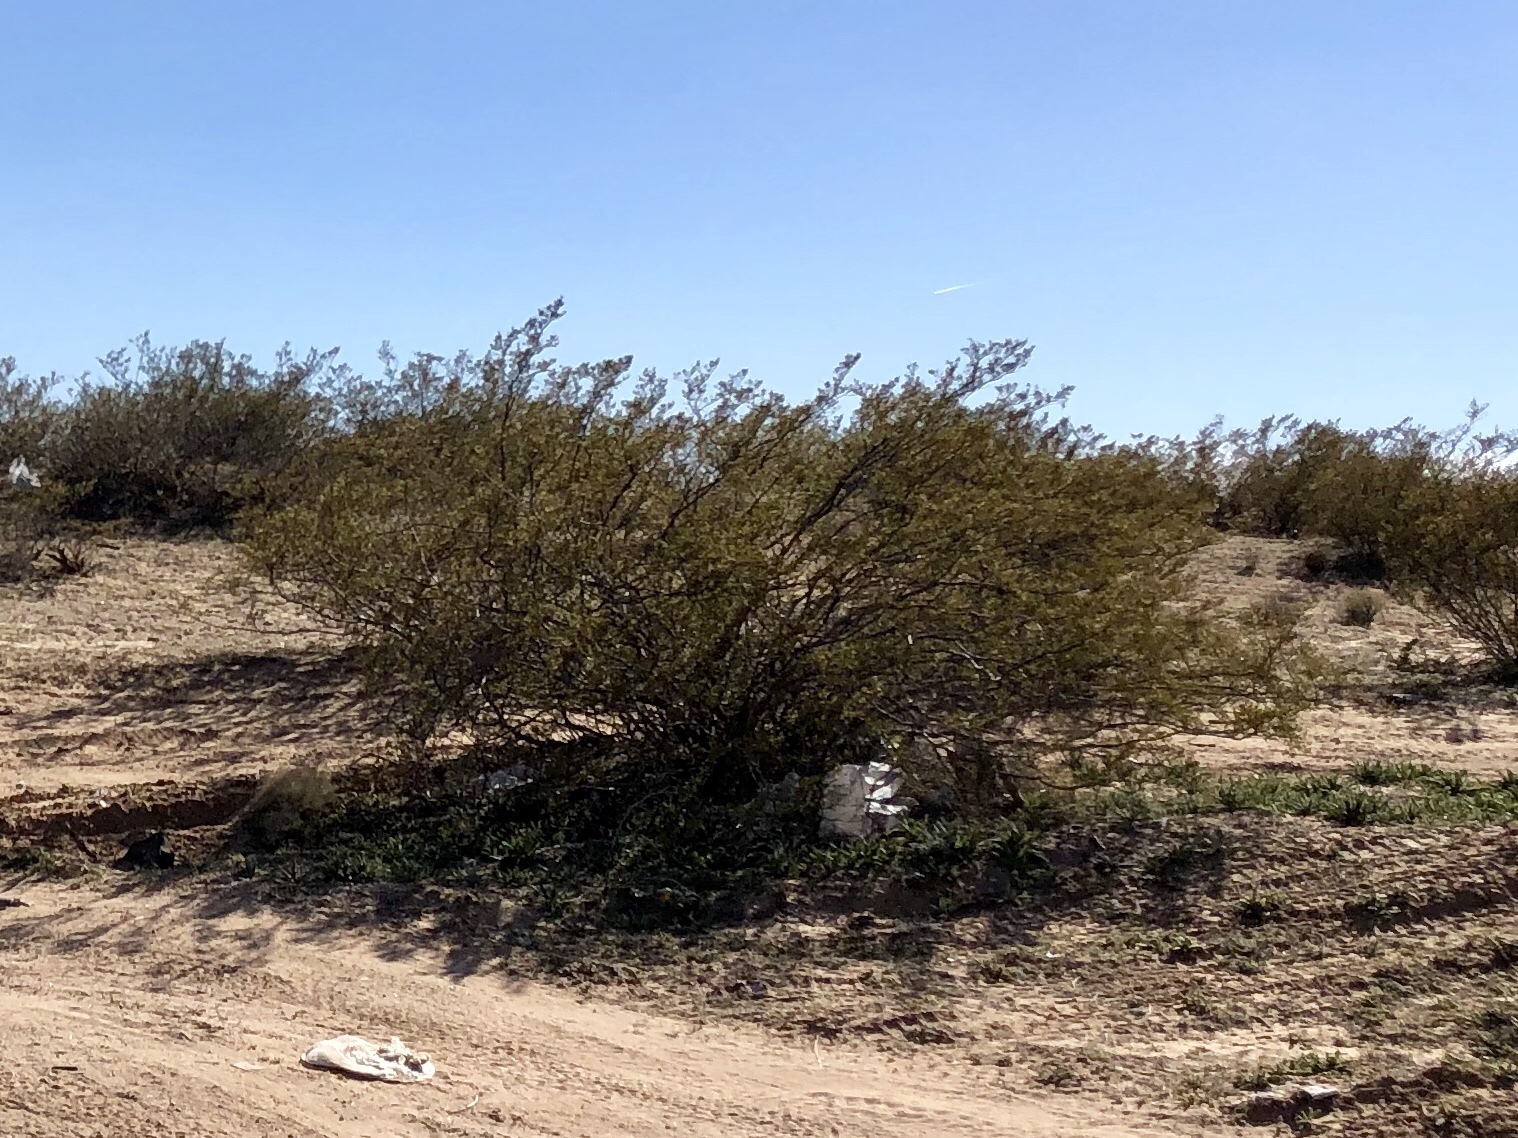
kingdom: Plantae
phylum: Tracheophyta
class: Magnoliopsida
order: Zygophyllales
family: Zygophyllaceae
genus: Larrea
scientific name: Larrea tridentata
